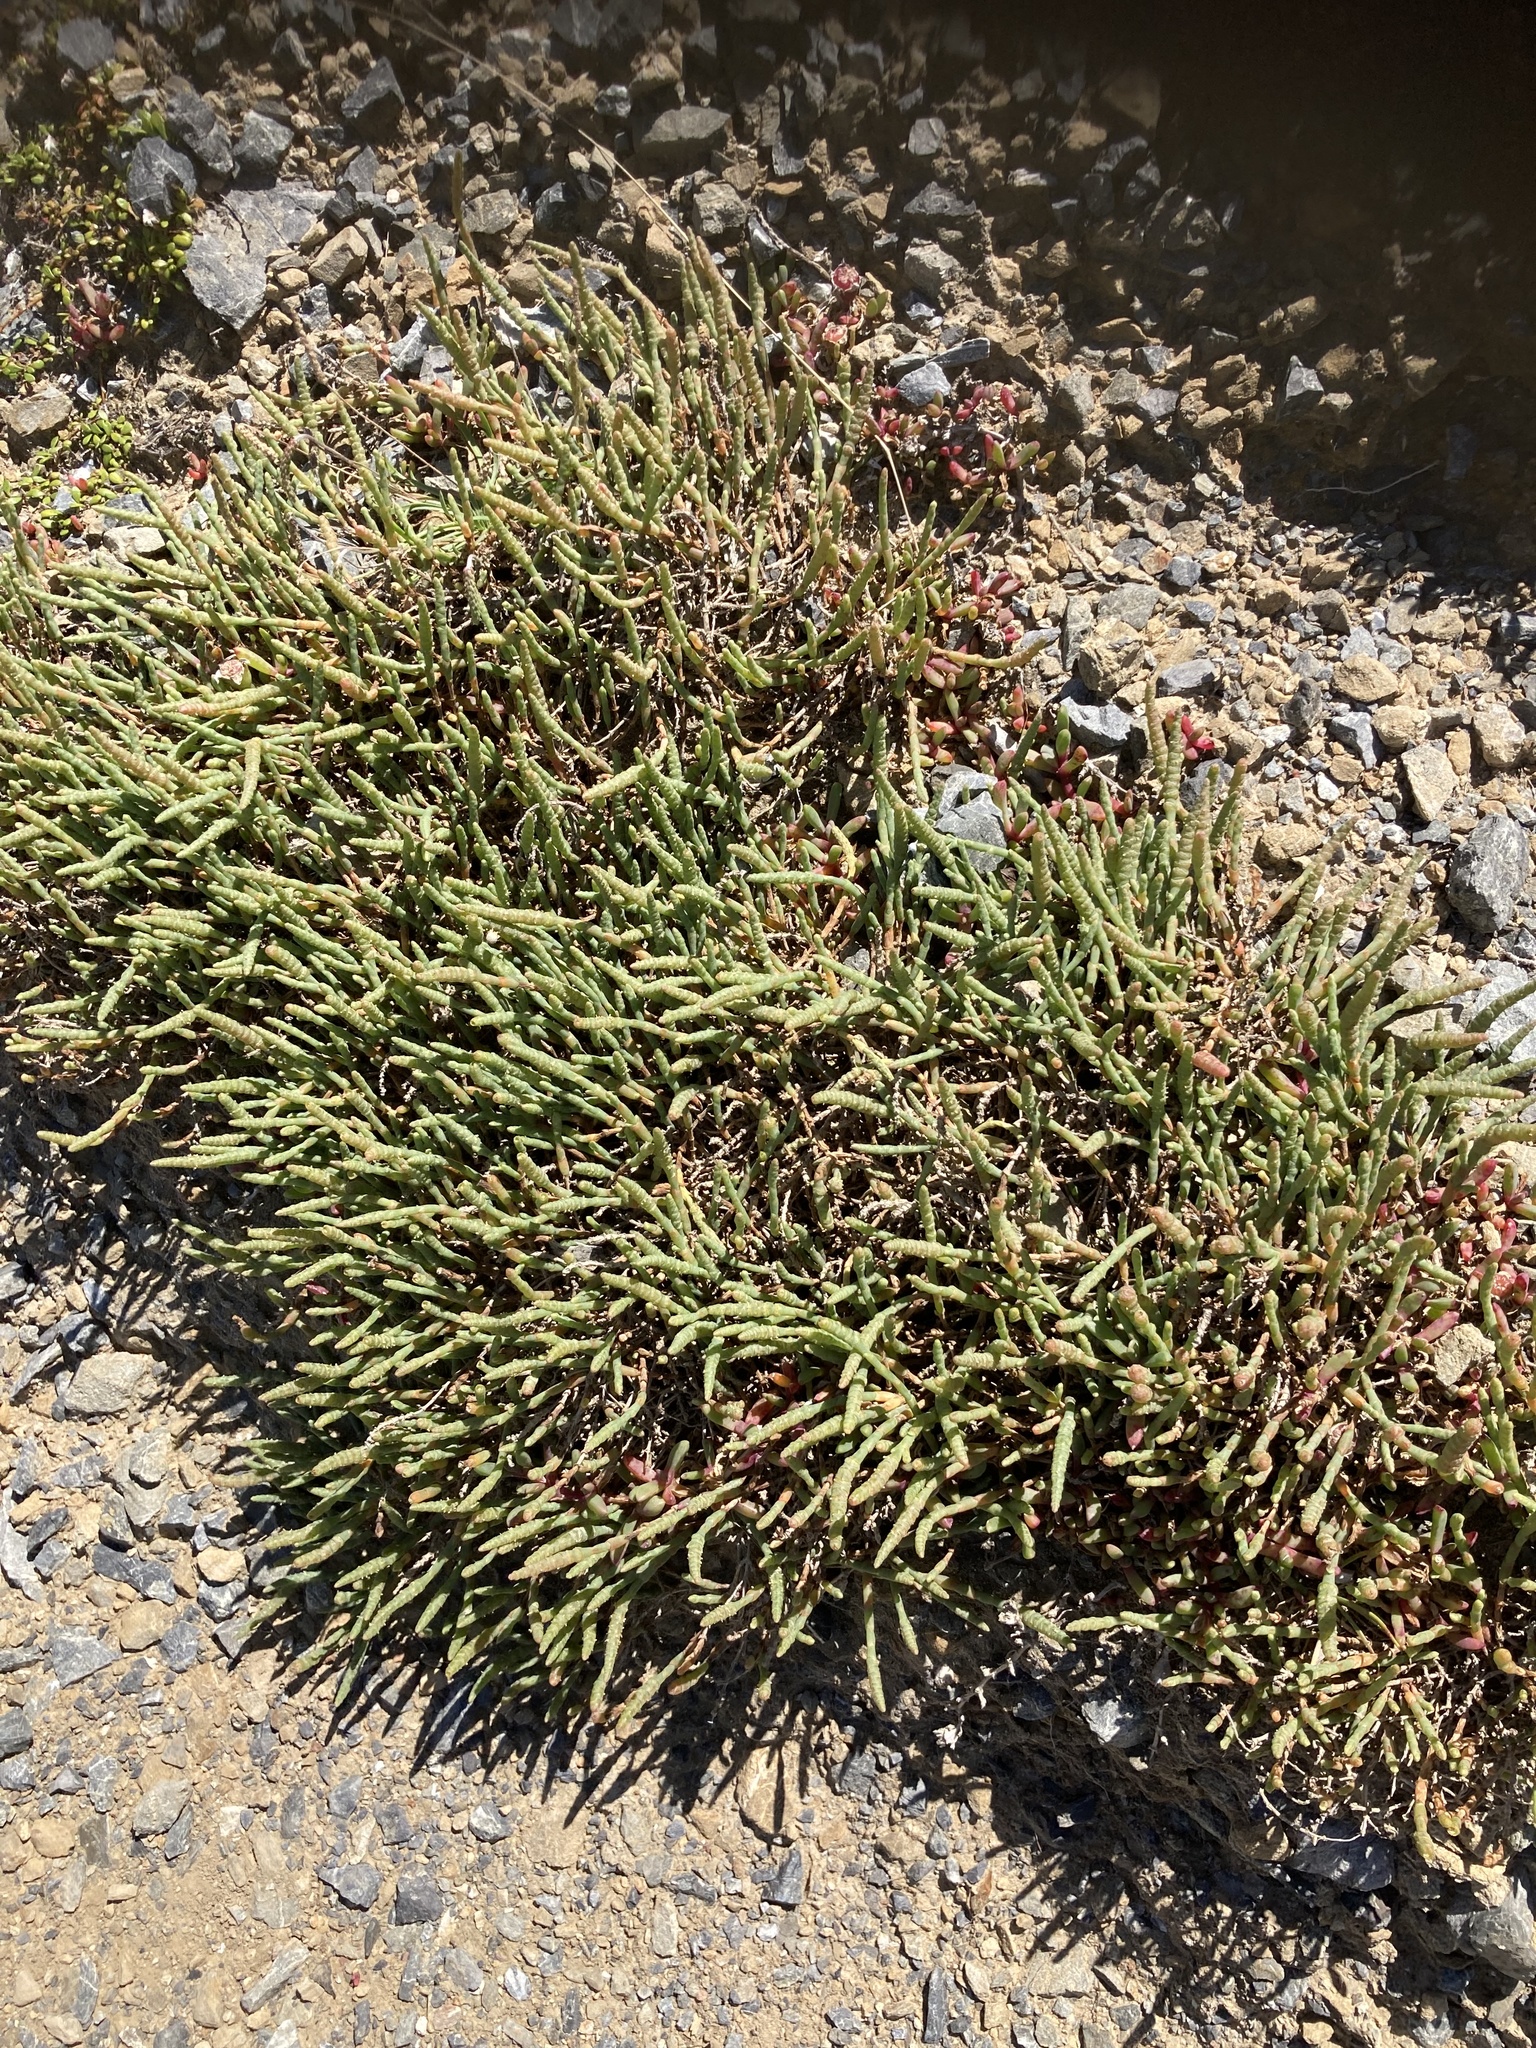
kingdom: Plantae
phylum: Tracheophyta
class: Magnoliopsida
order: Caryophyllales
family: Amaranthaceae
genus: Salicornia
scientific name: Salicornia quinqueflora
